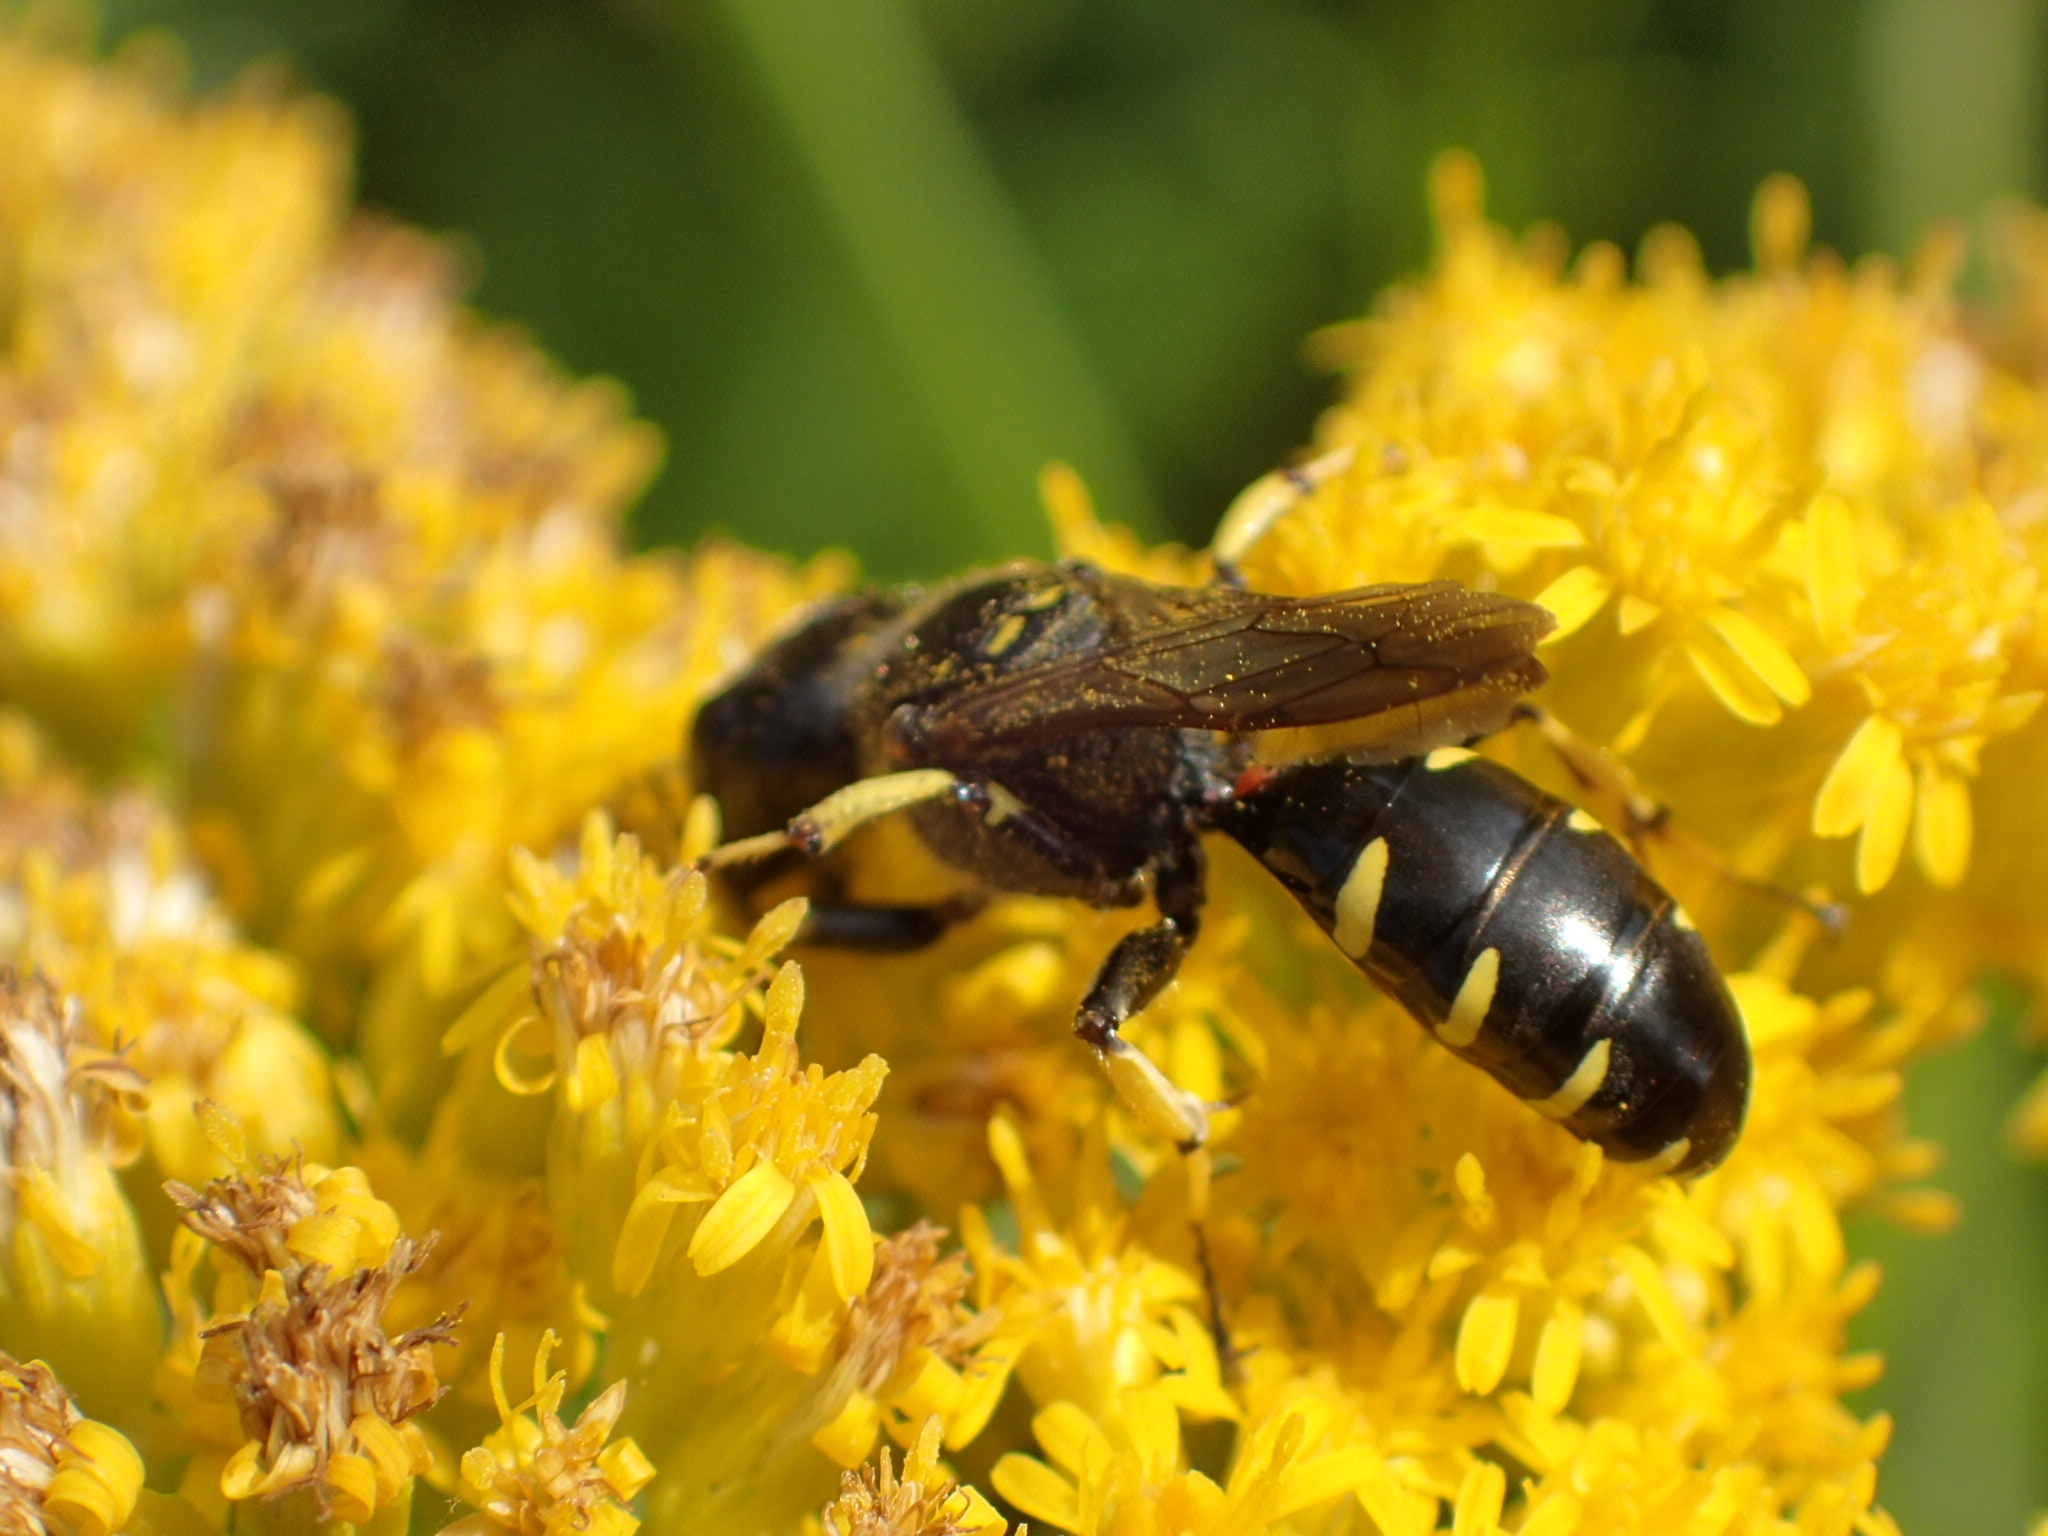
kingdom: Animalia
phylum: Arthropoda
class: Insecta
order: Hymenoptera
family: Crabronidae
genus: Ectemnius
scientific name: Ectemnius maculosus
